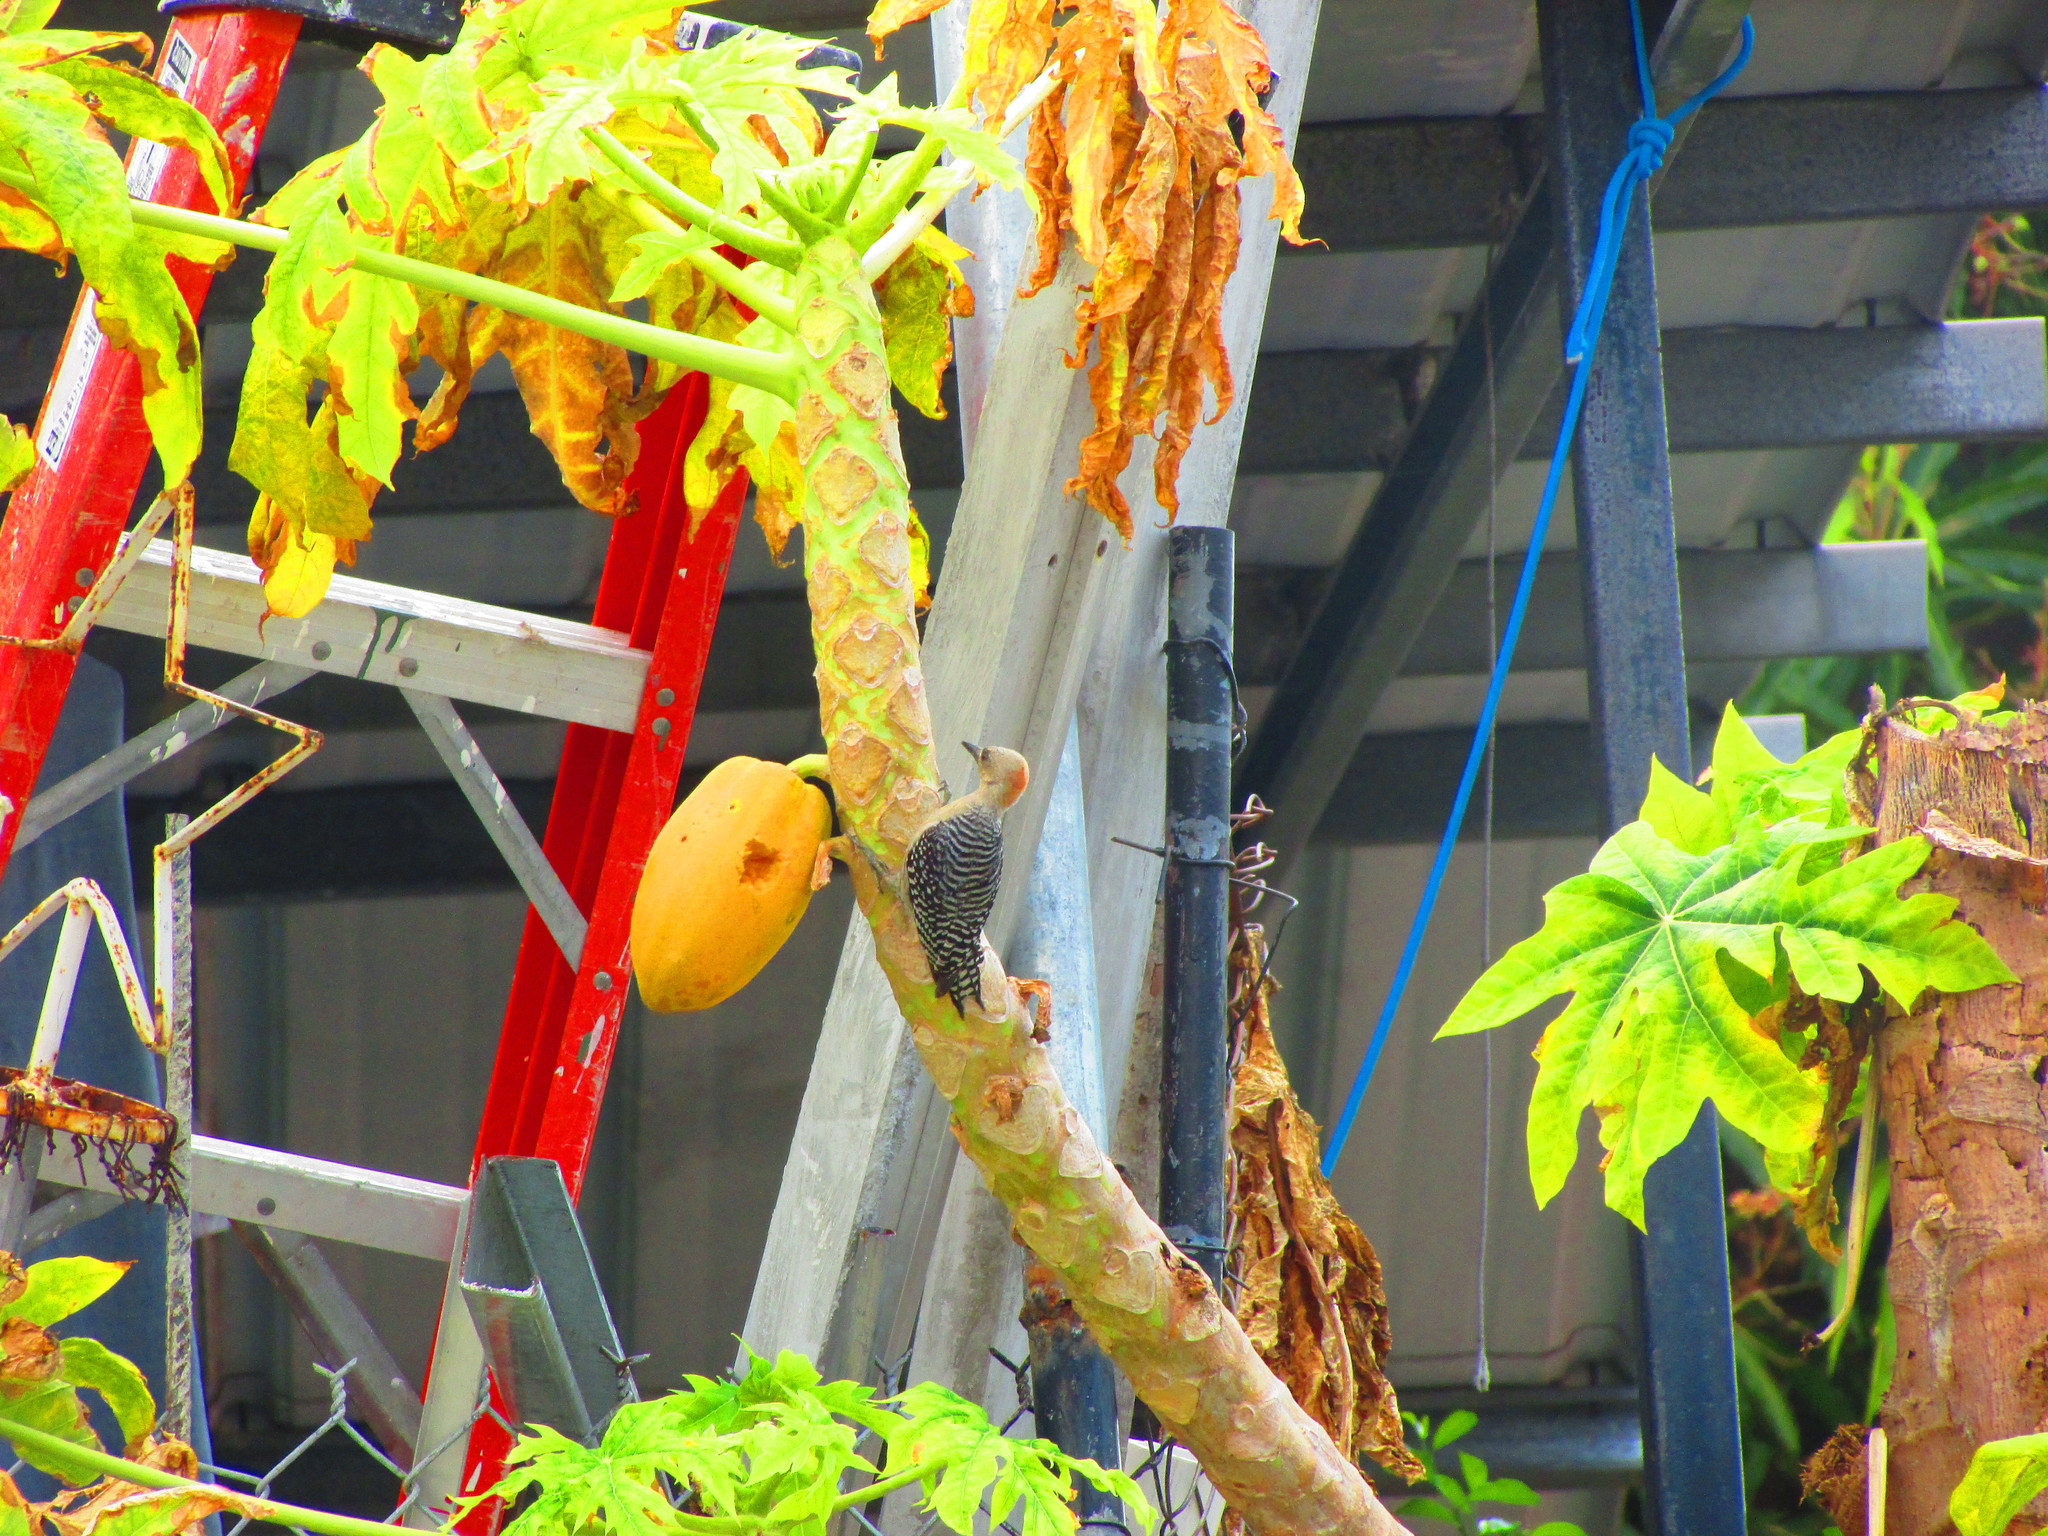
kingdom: Animalia
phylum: Chordata
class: Aves
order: Piciformes
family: Picidae
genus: Melanerpes
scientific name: Melanerpes rubricapillus
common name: Red-crowned woodpecker
